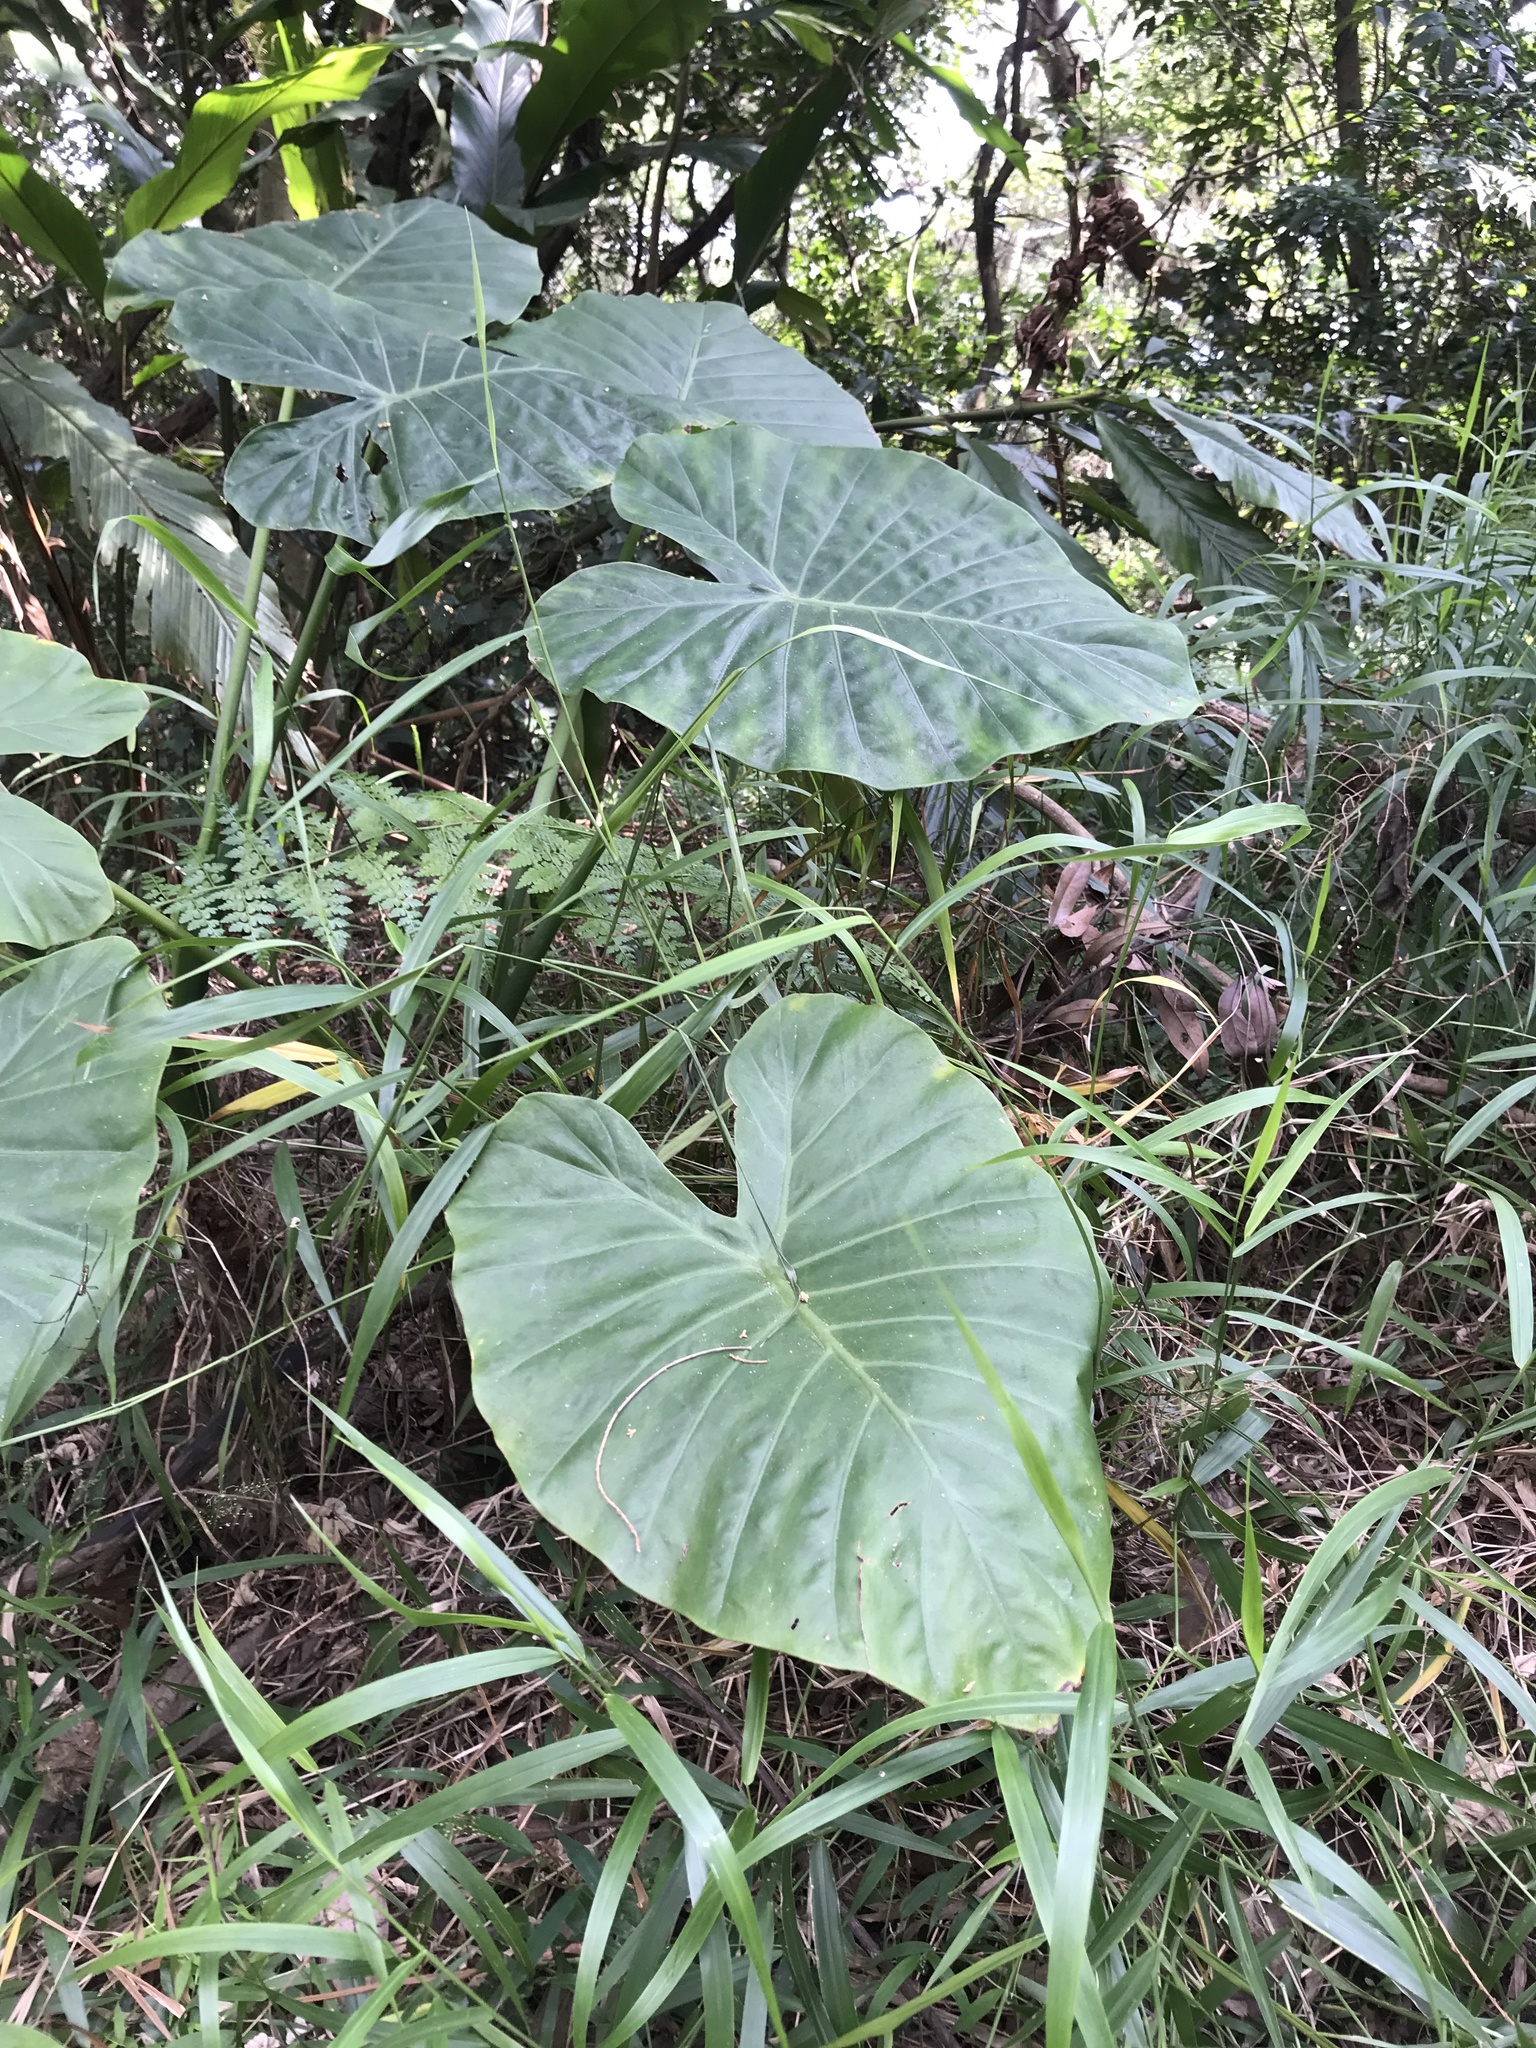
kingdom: Plantae
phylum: Tracheophyta
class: Liliopsida
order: Alismatales
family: Araceae
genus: Alocasia
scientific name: Alocasia odora
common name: Asian taro
